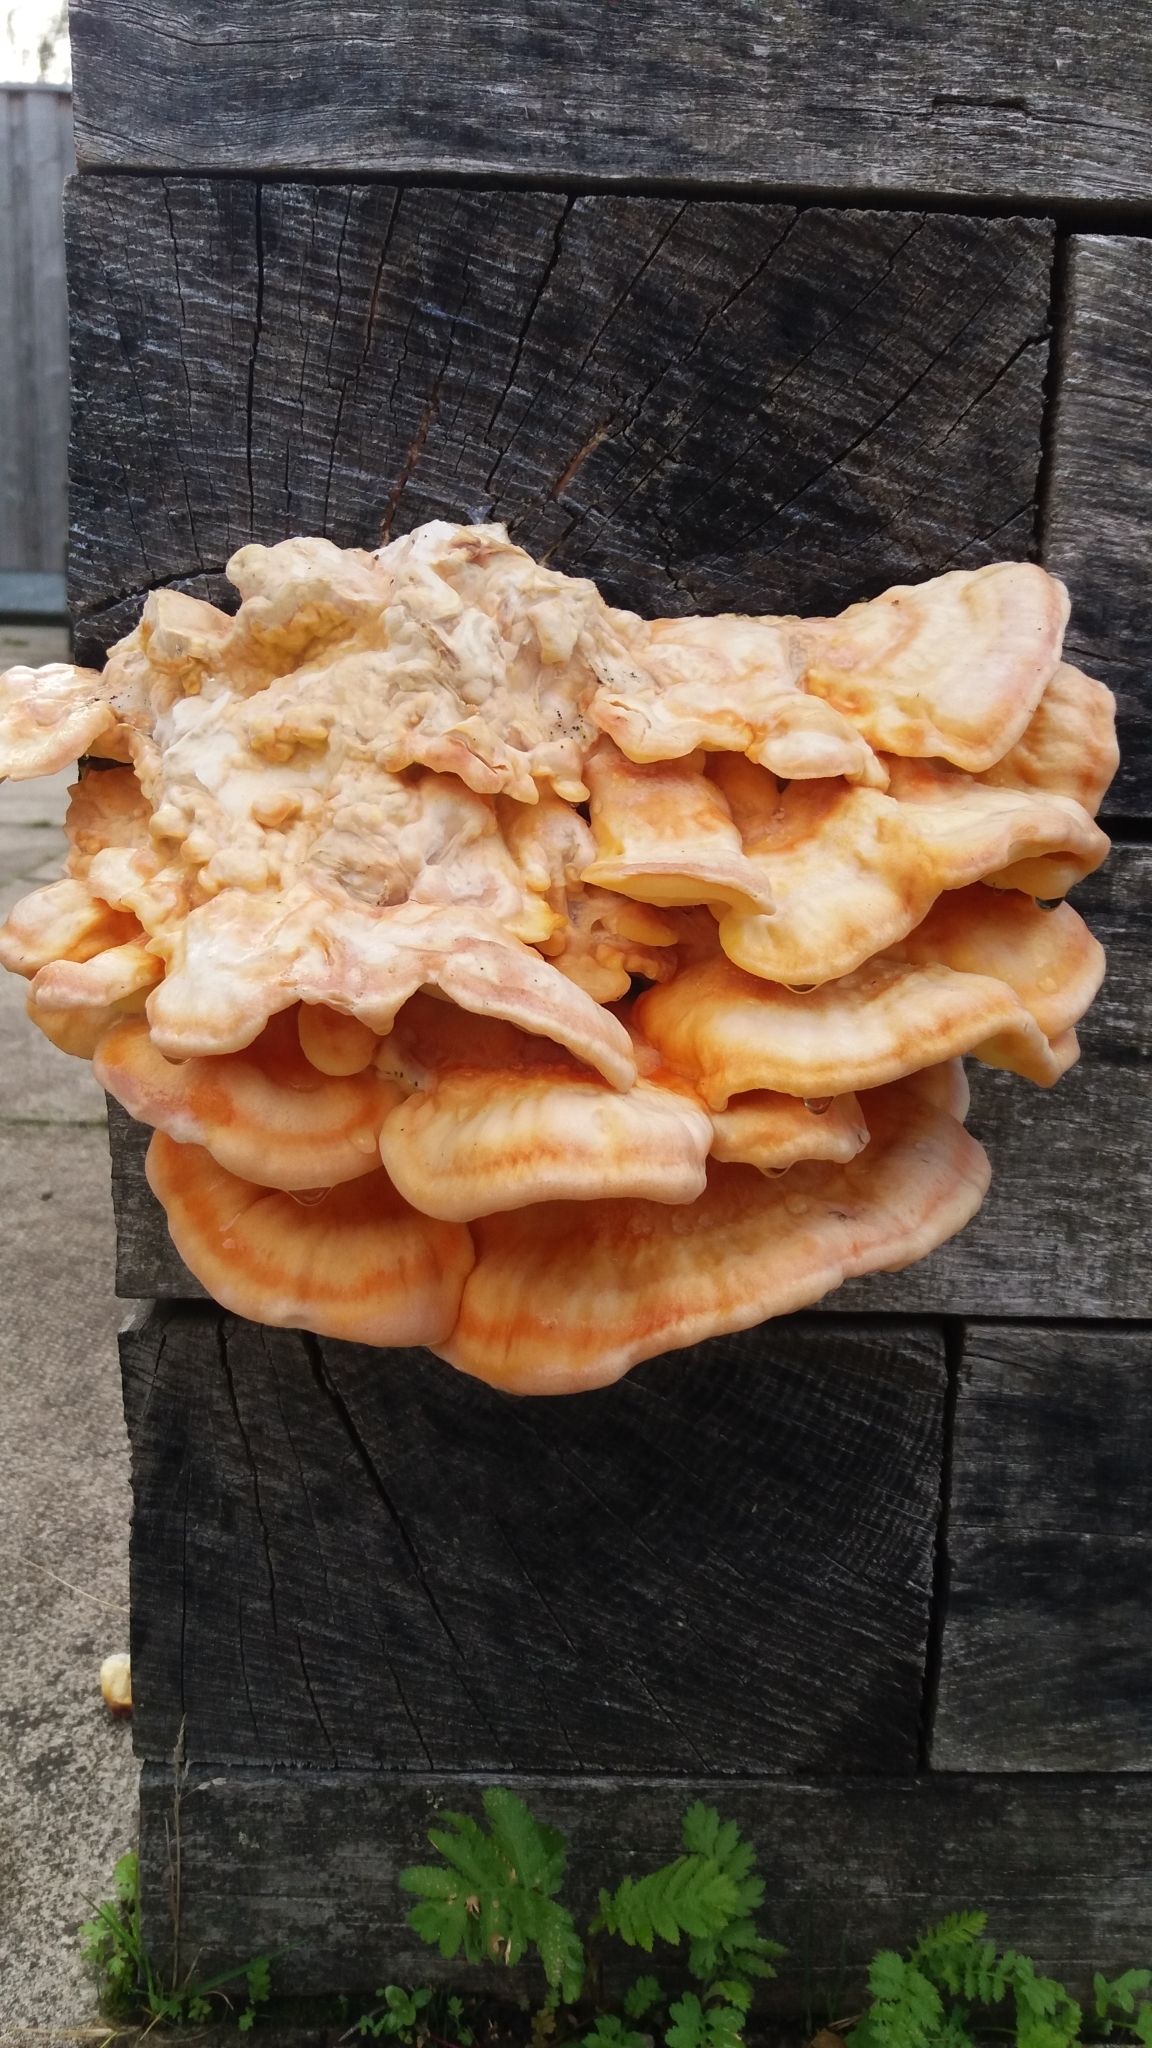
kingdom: Fungi
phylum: Basidiomycota
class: Agaricomycetes
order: Polyporales
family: Laetiporaceae
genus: Laetiporus
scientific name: Laetiporus sulphureus
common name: Chicken of the woods
